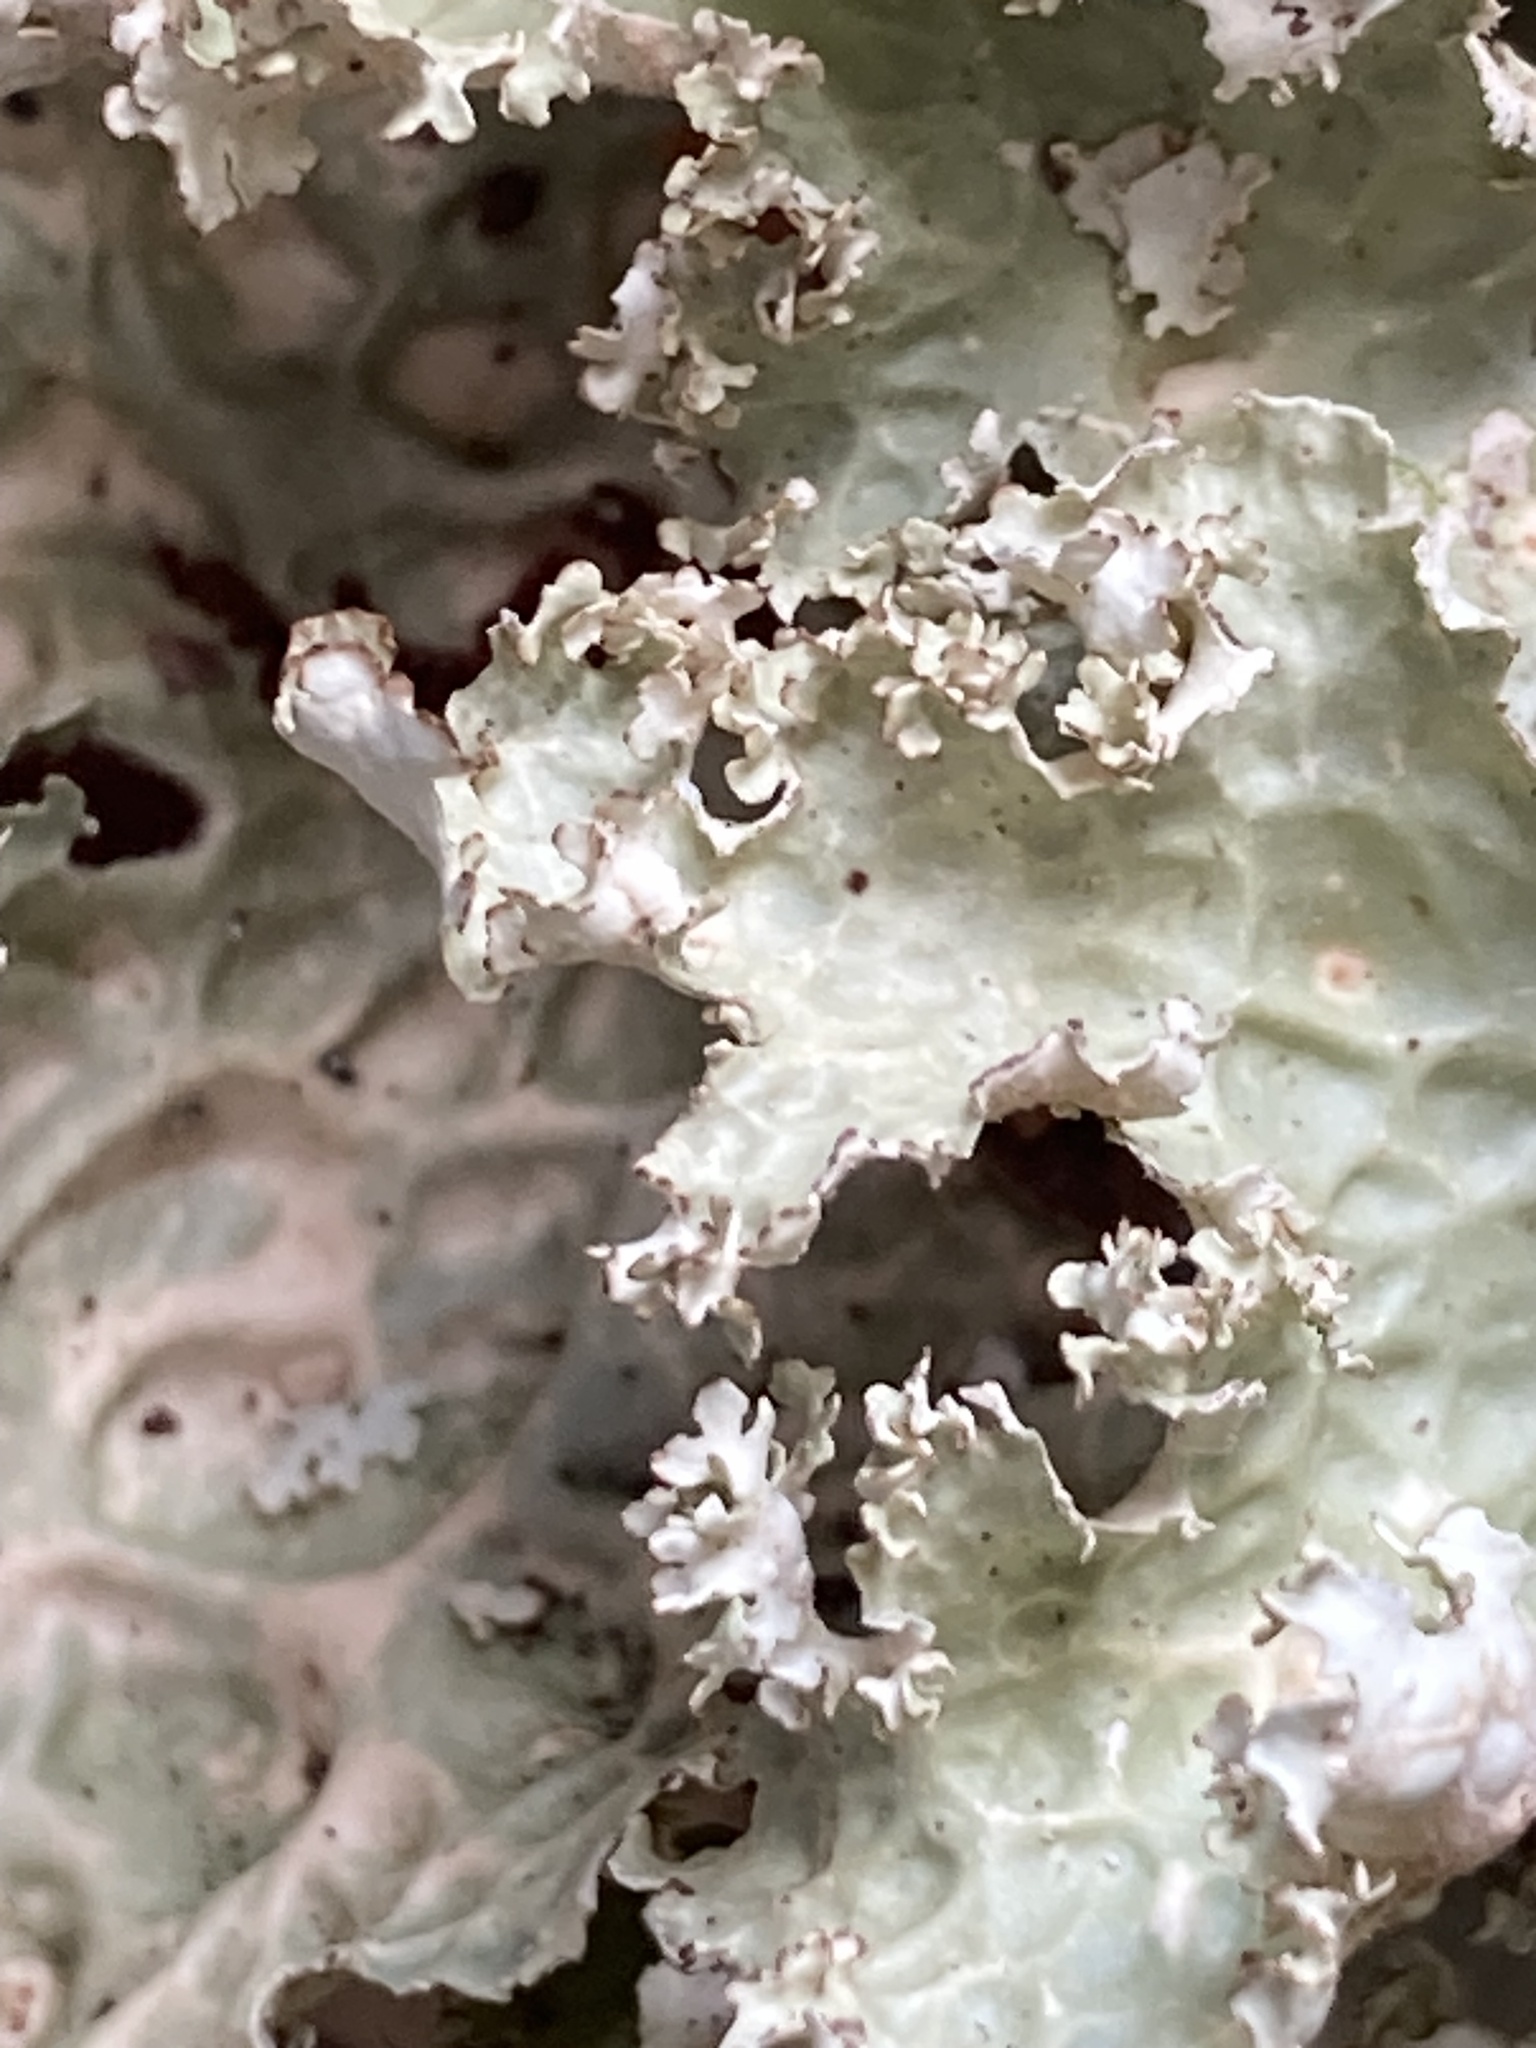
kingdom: Fungi
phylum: Ascomycota
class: Lecanoromycetes
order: Peltigerales
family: Lobariaceae
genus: Lobaria
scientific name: Lobaria oregana
